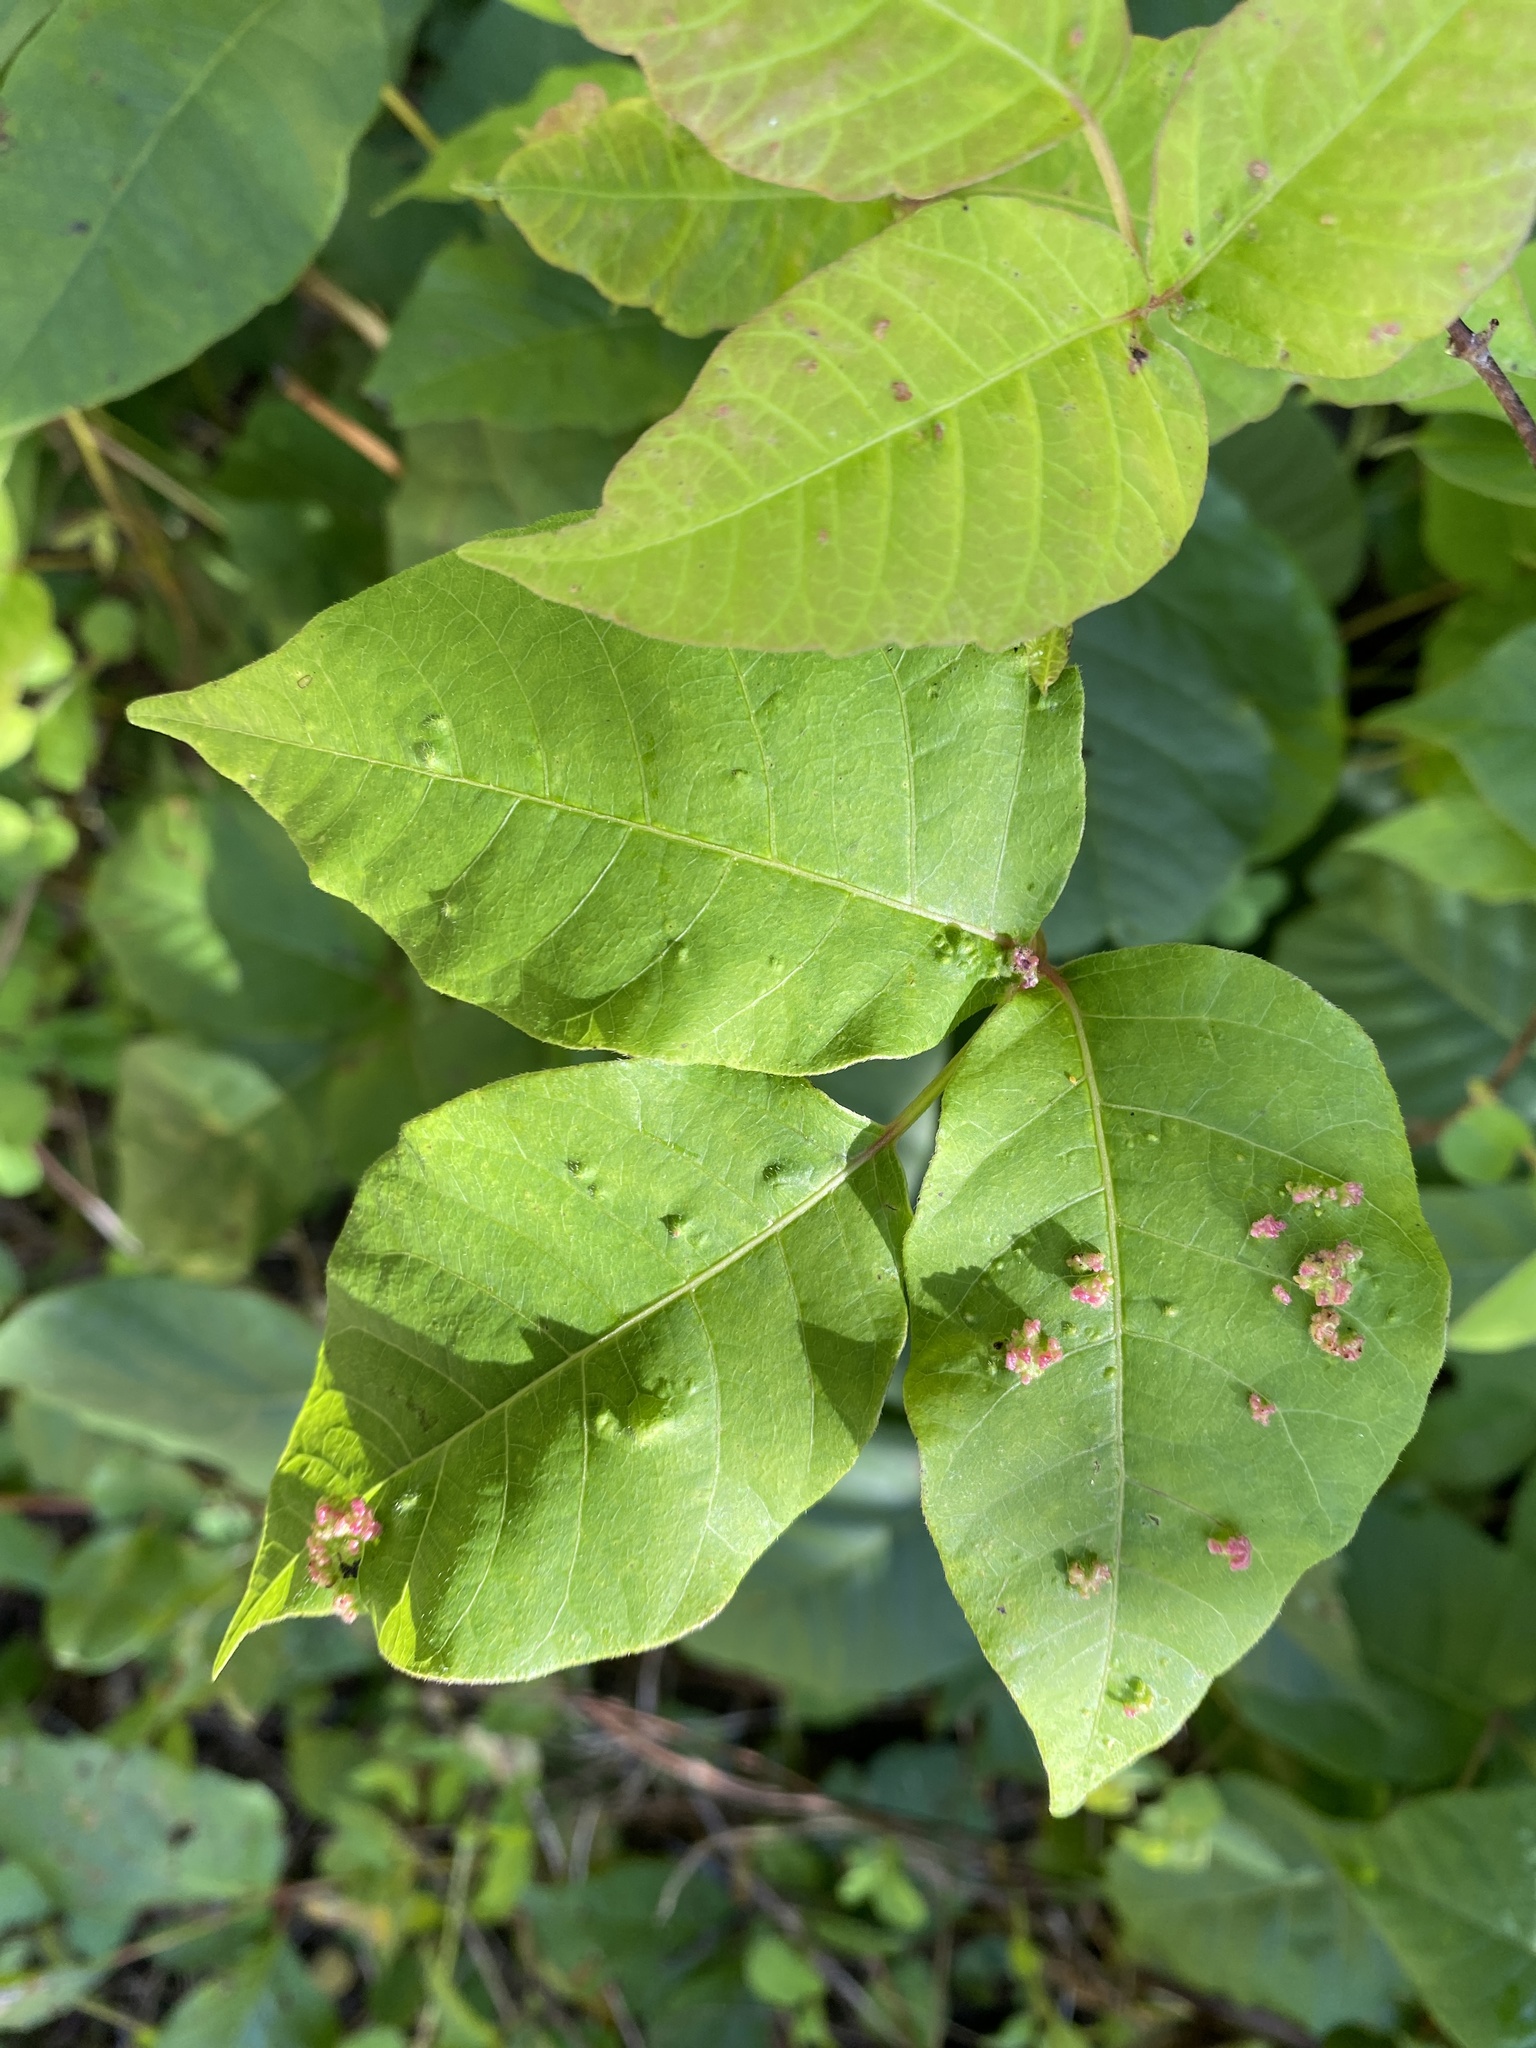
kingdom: Animalia
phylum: Arthropoda
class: Arachnida
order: Trombidiformes
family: Eriophyidae
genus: Aculops
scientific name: Aculops
